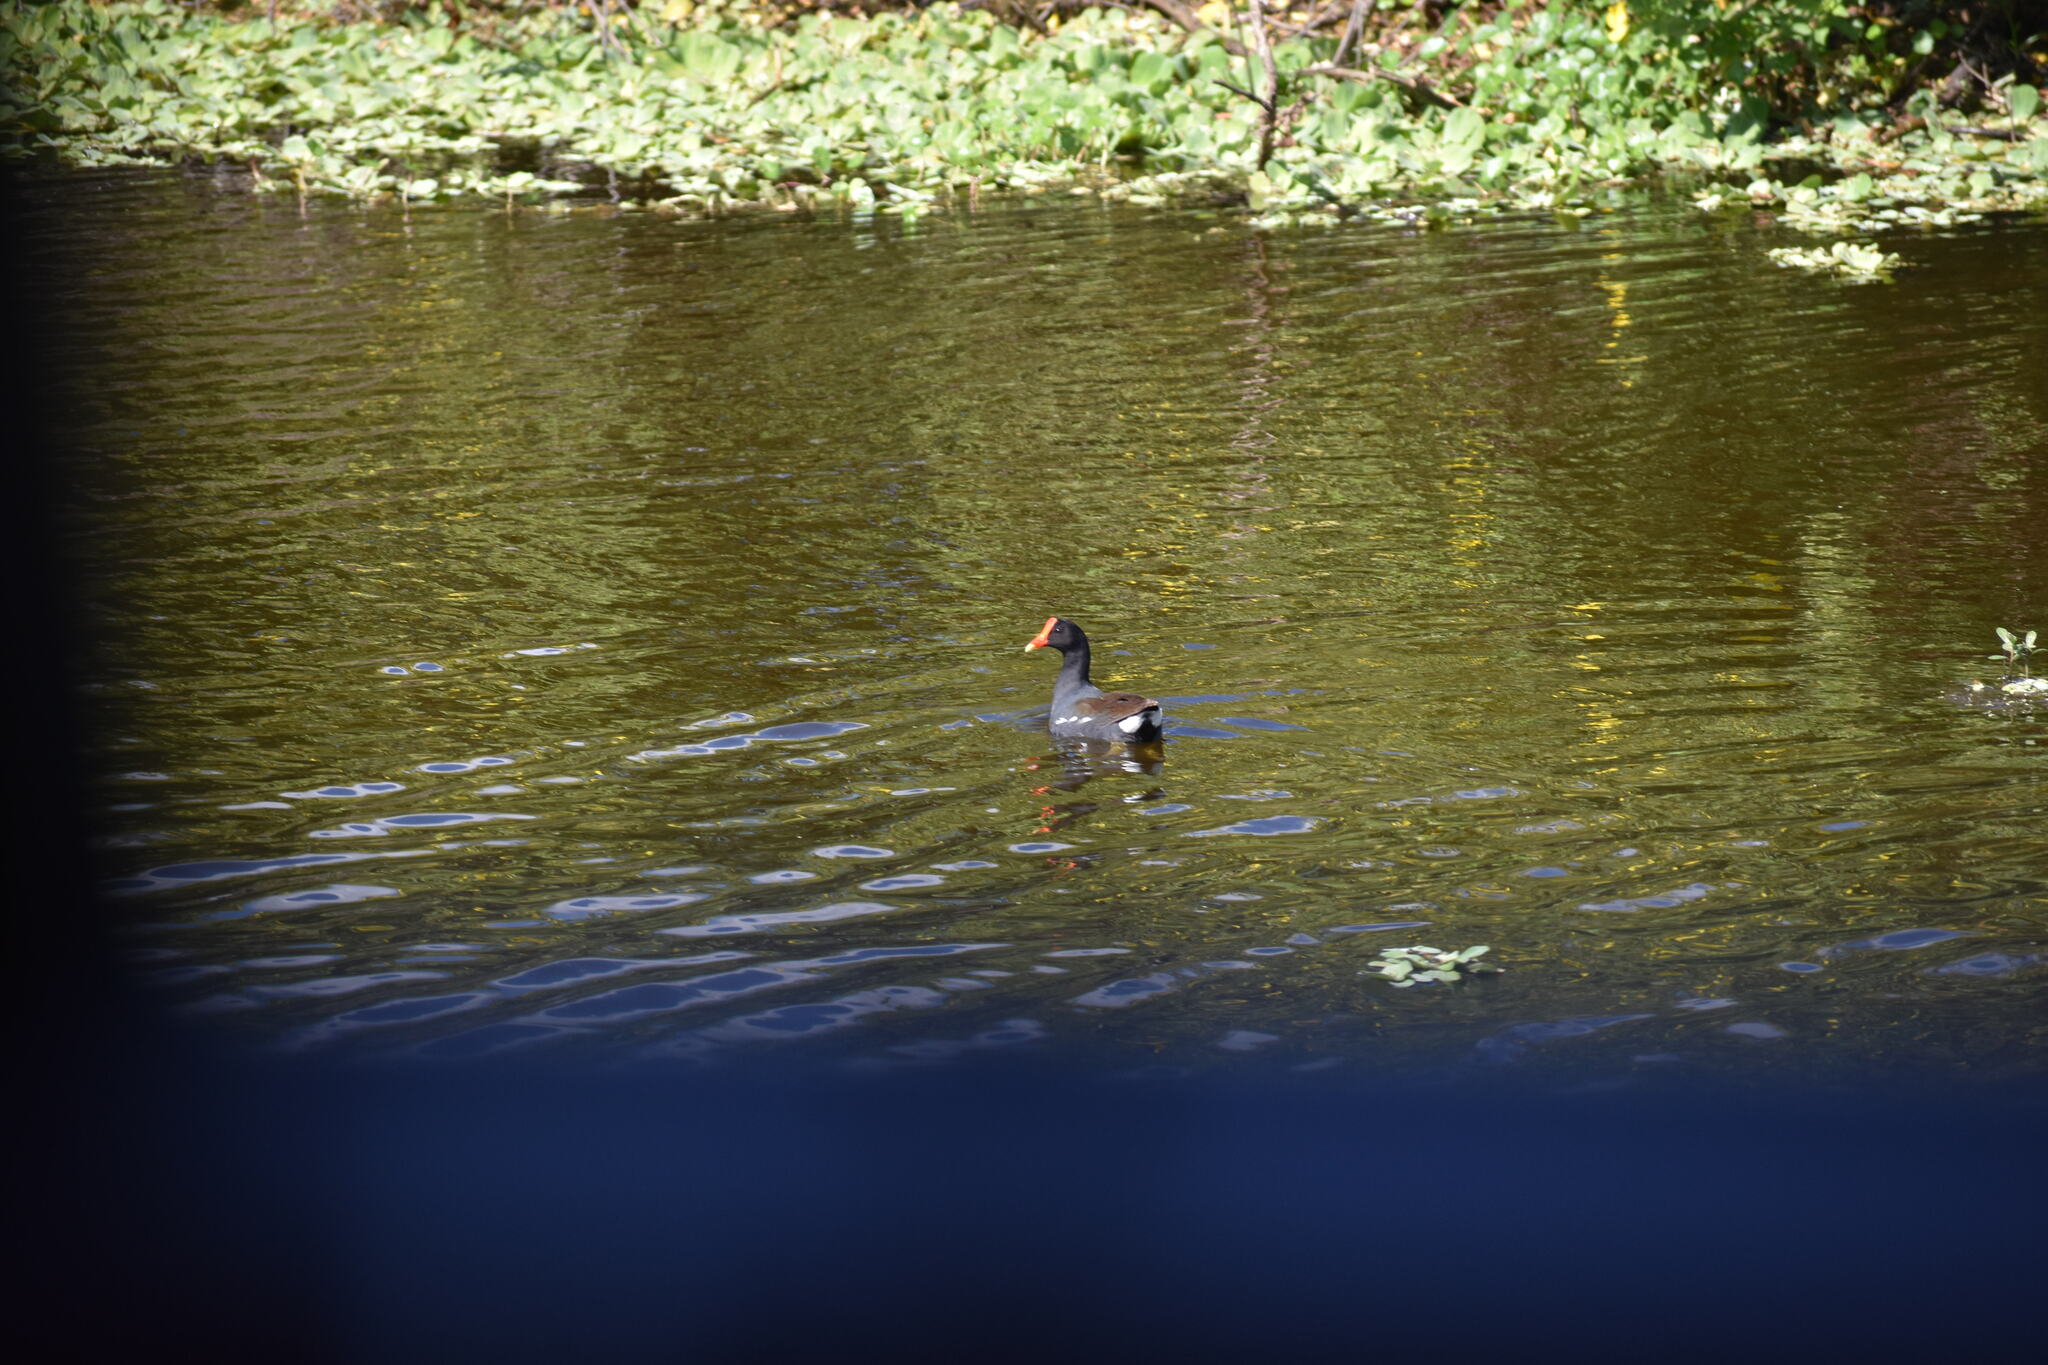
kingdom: Animalia
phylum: Chordata
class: Aves
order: Gruiformes
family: Rallidae
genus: Gallinula
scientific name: Gallinula chloropus
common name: Common moorhen
